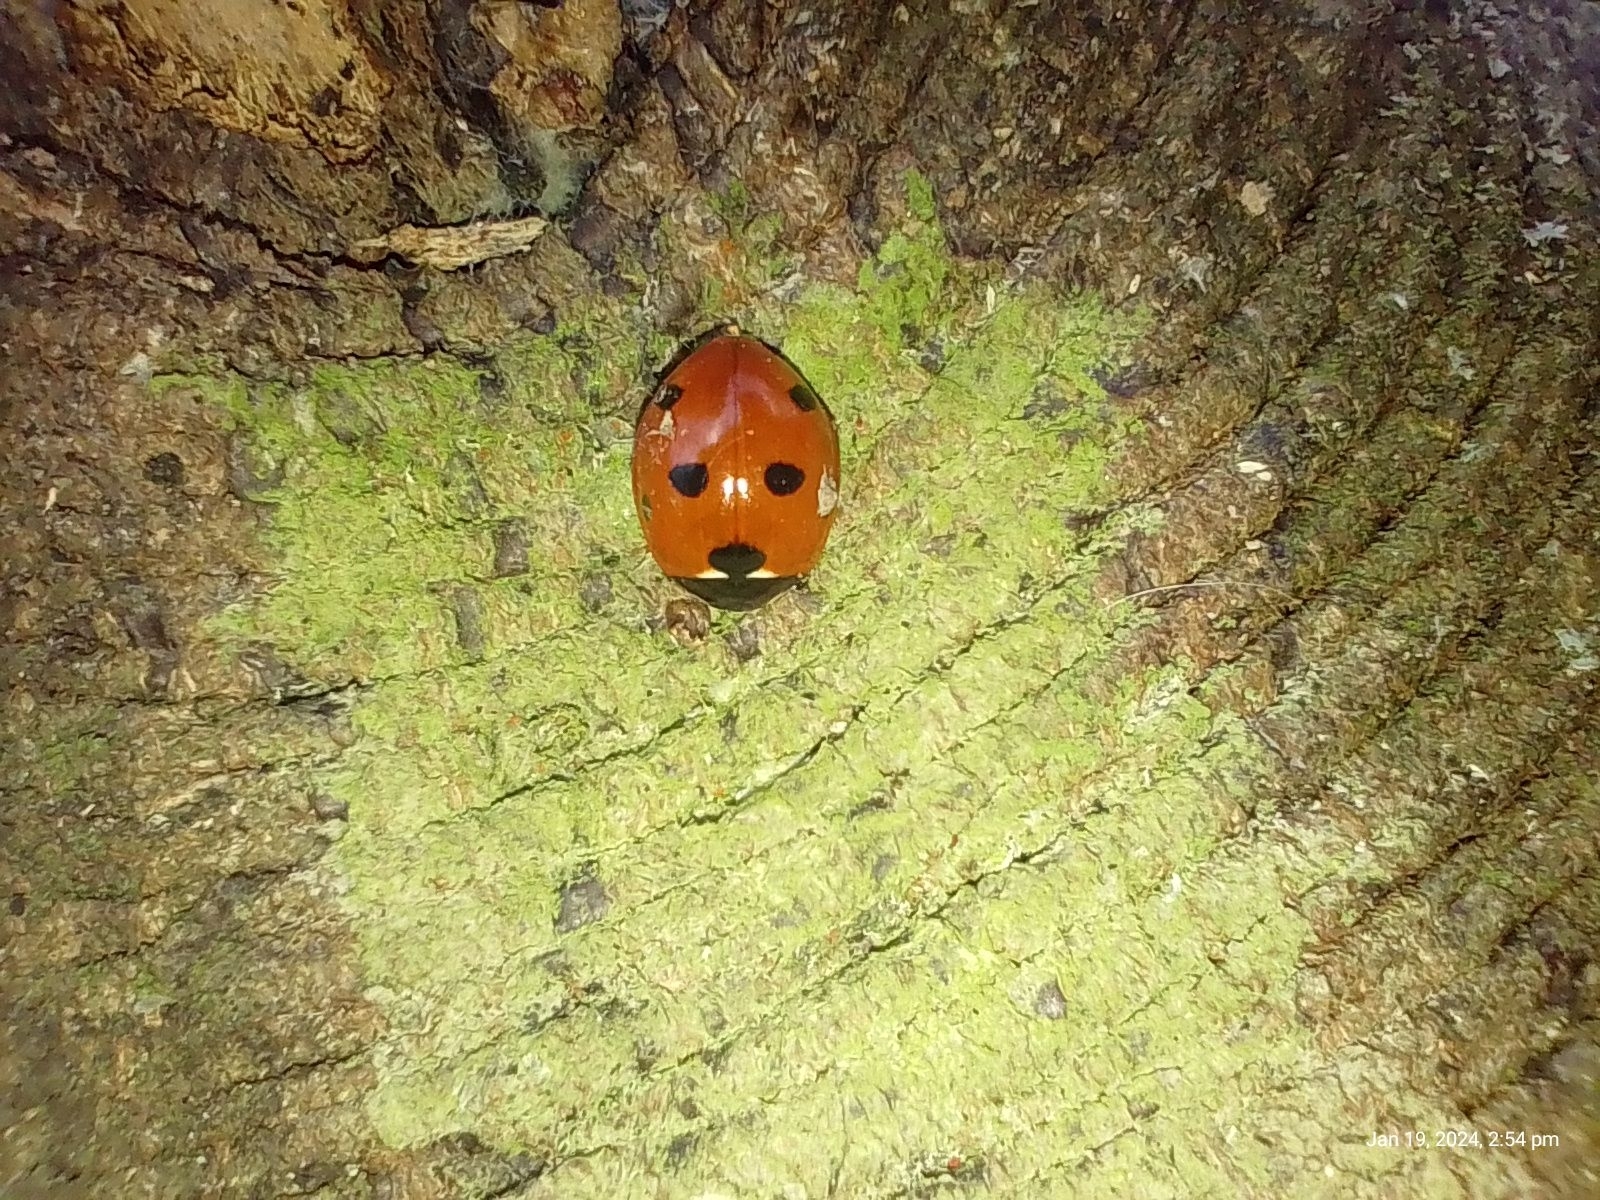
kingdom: Animalia
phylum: Arthropoda
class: Insecta
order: Coleoptera
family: Coccinellidae
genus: Coccinella
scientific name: Coccinella septempunctata
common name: Sevenspotted lady beetle
